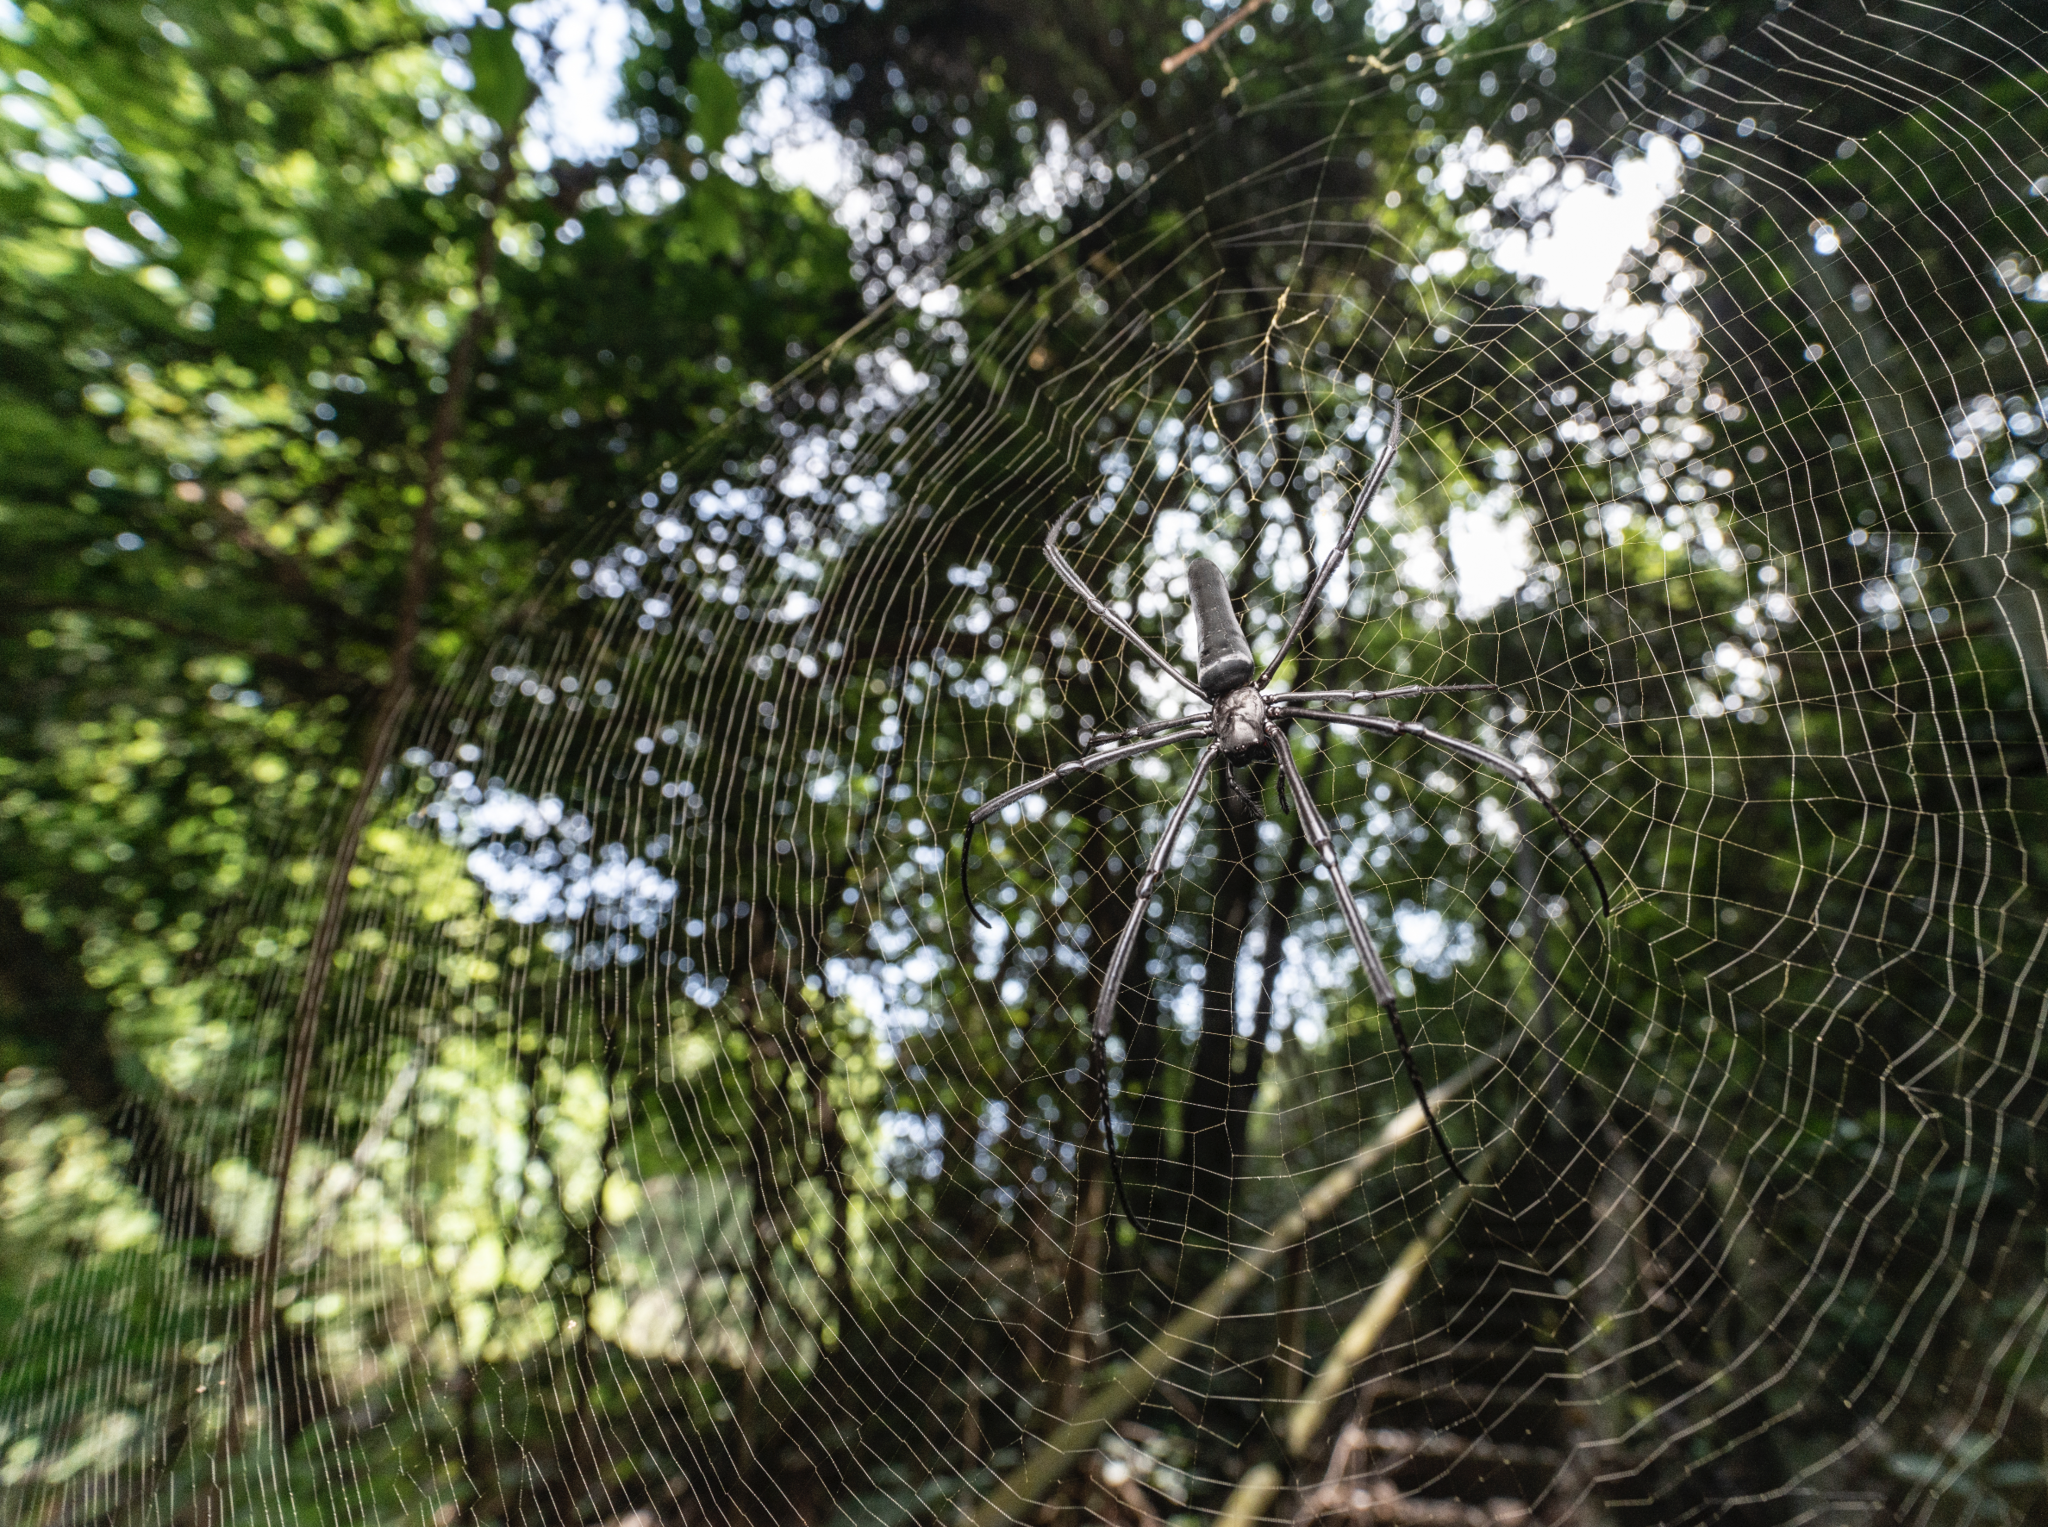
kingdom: Animalia
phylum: Arthropoda
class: Arachnida
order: Araneae
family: Araneidae
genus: Nephila
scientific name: Nephila pilipes
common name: Giant golden orb weaver
